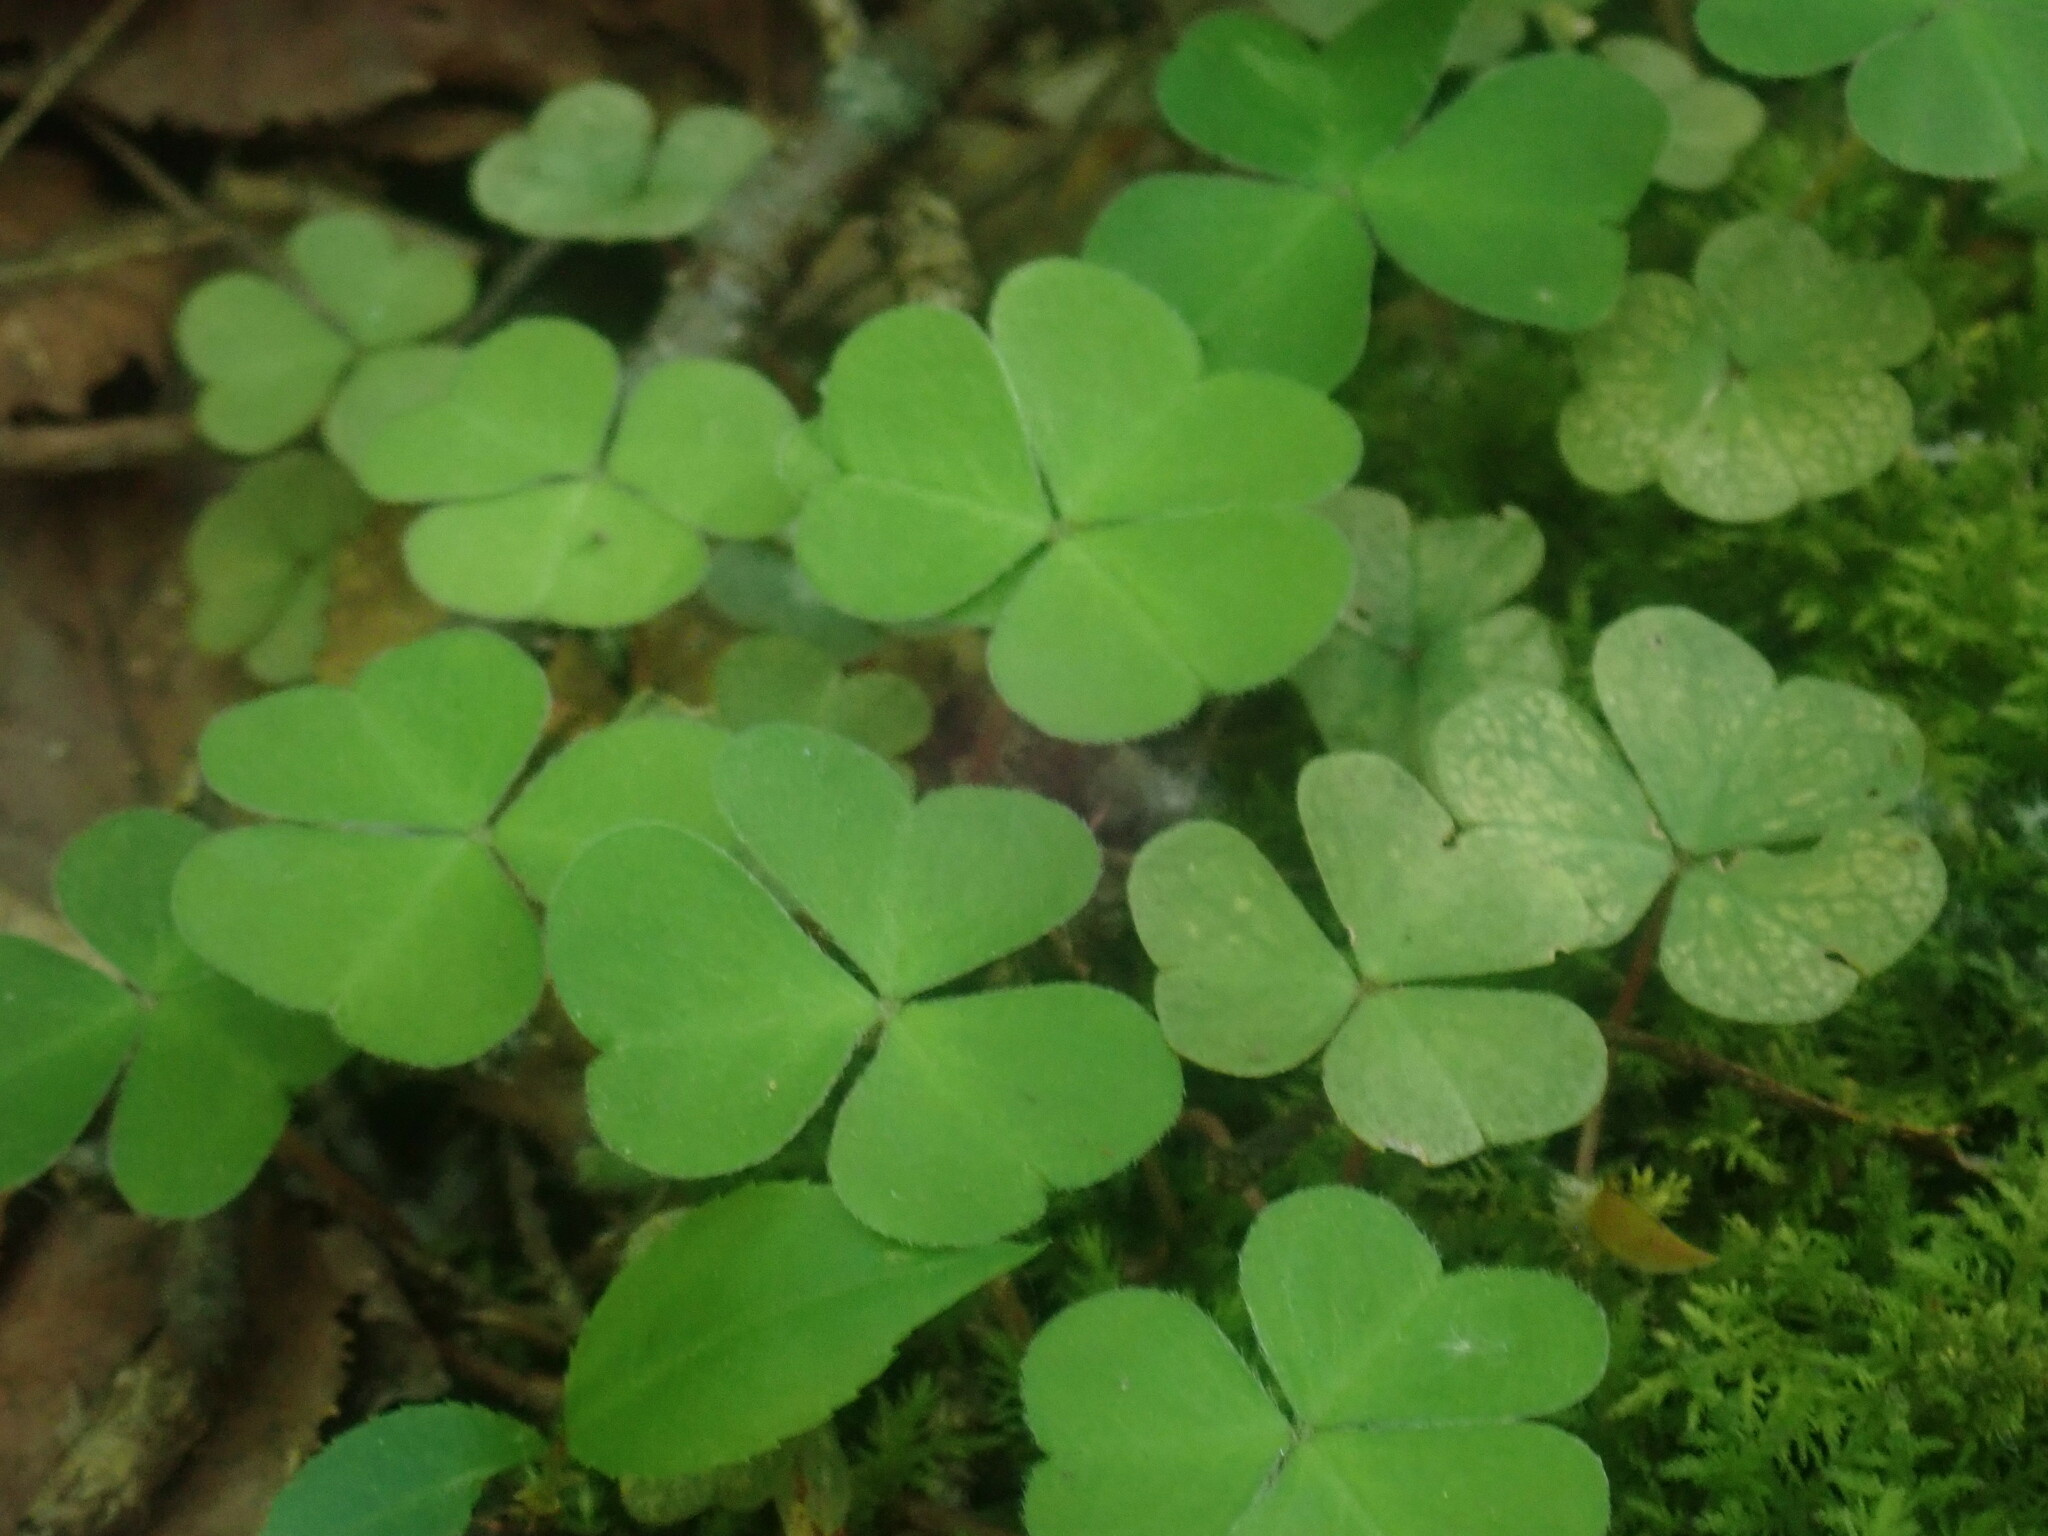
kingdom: Plantae
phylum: Tracheophyta
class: Magnoliopsida
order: Oxalidales
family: Oxalidaceae
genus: Oxalis
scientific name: Oxalis montana
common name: American wood-sorrel
